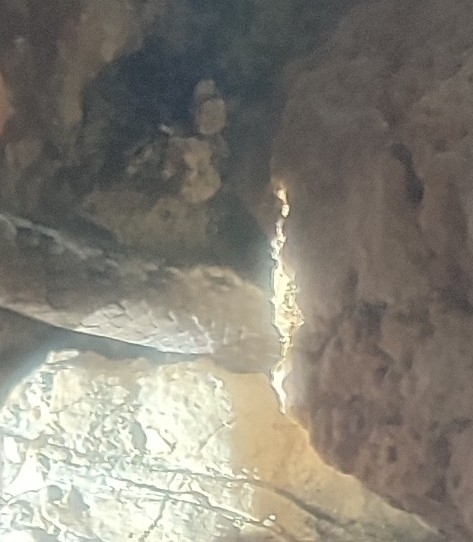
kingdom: Animalia
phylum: Chordata
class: Squamata
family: Colubridae
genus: Coronella
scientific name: Coronella girondica
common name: Southern smooth snake
